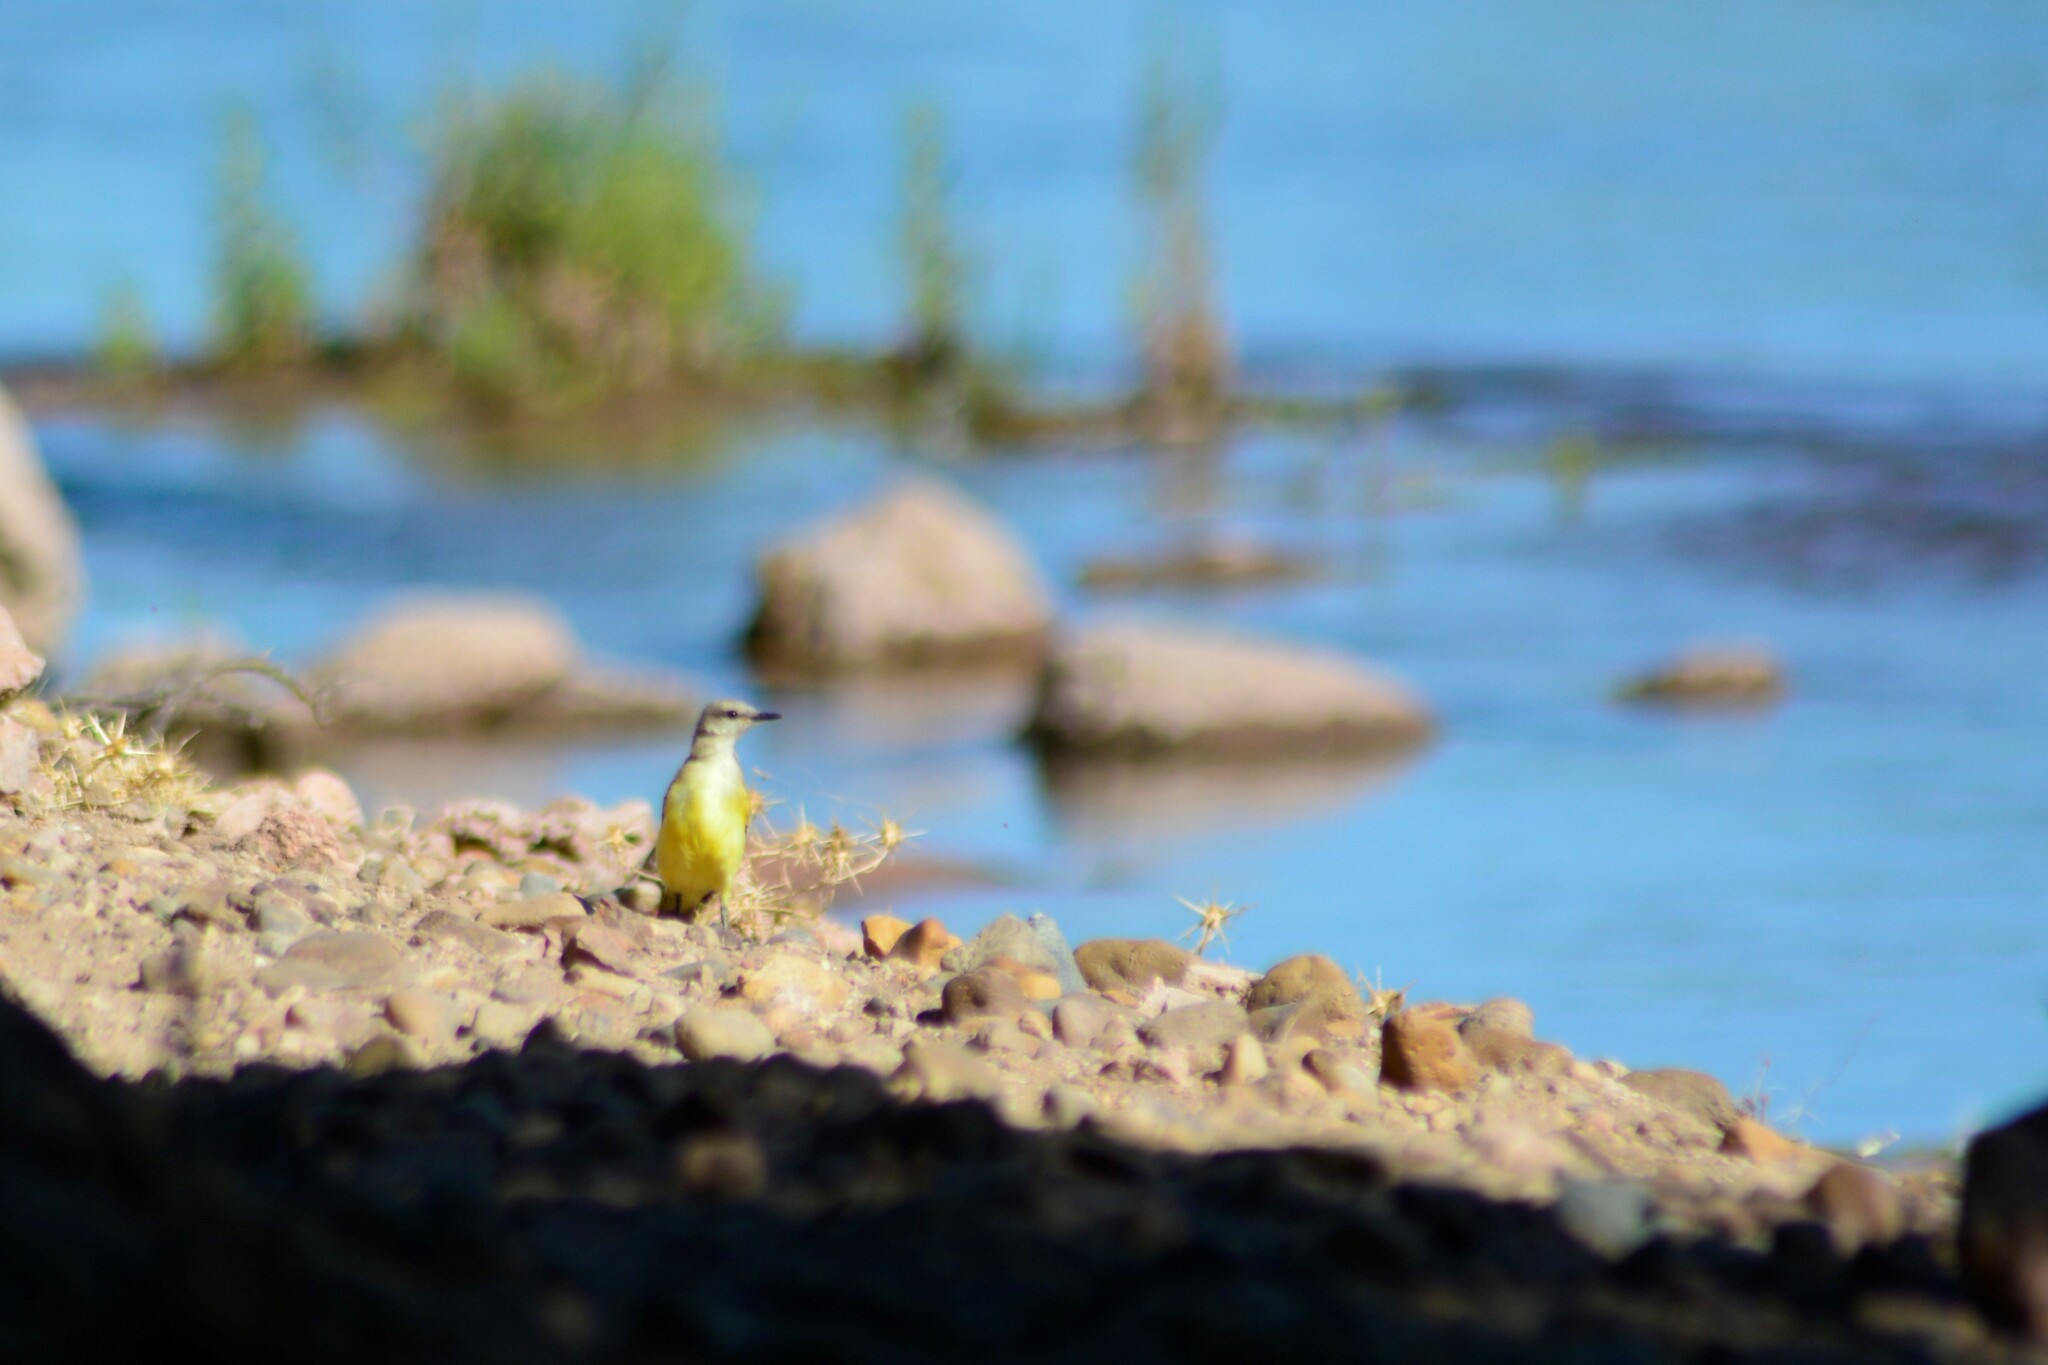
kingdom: Animalia
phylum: Chordata
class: Aves
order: Passeriformes
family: Tyrannidae
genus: Machetornis
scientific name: Machetornis rixosa
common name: Cattle tyrant
